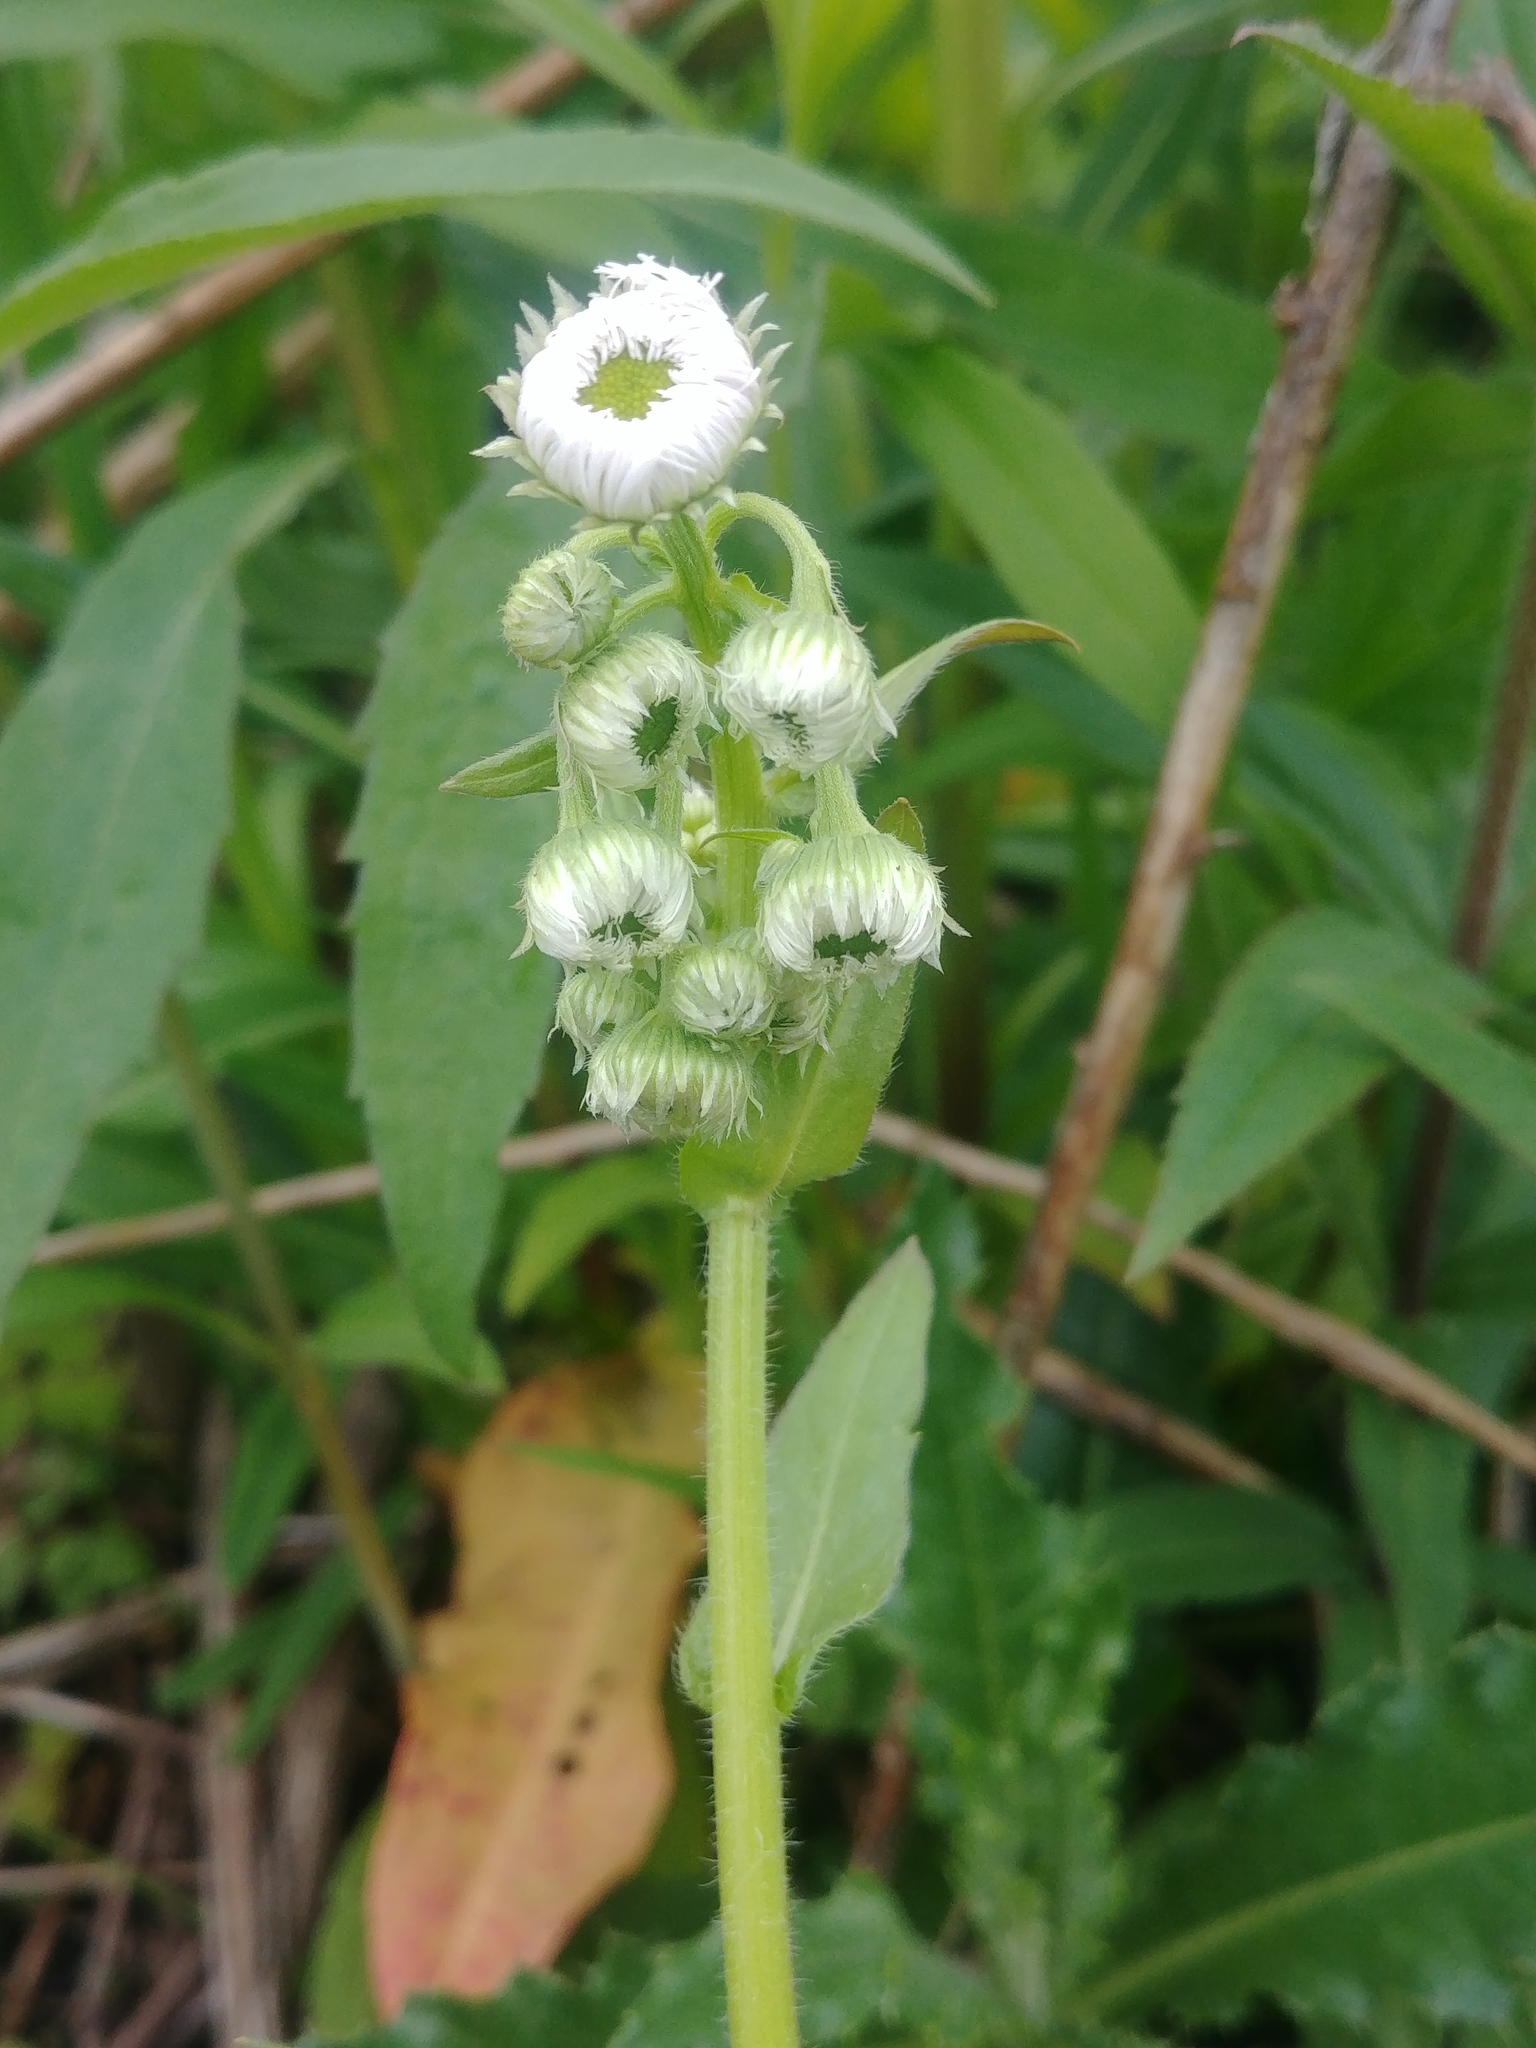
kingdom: Plantae
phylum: Tracheophyta
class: Magnoliopsida
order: Asterales
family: Asteraceae
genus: Erigeron
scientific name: Erigeron philadelphicus
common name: Robin's-plantain
